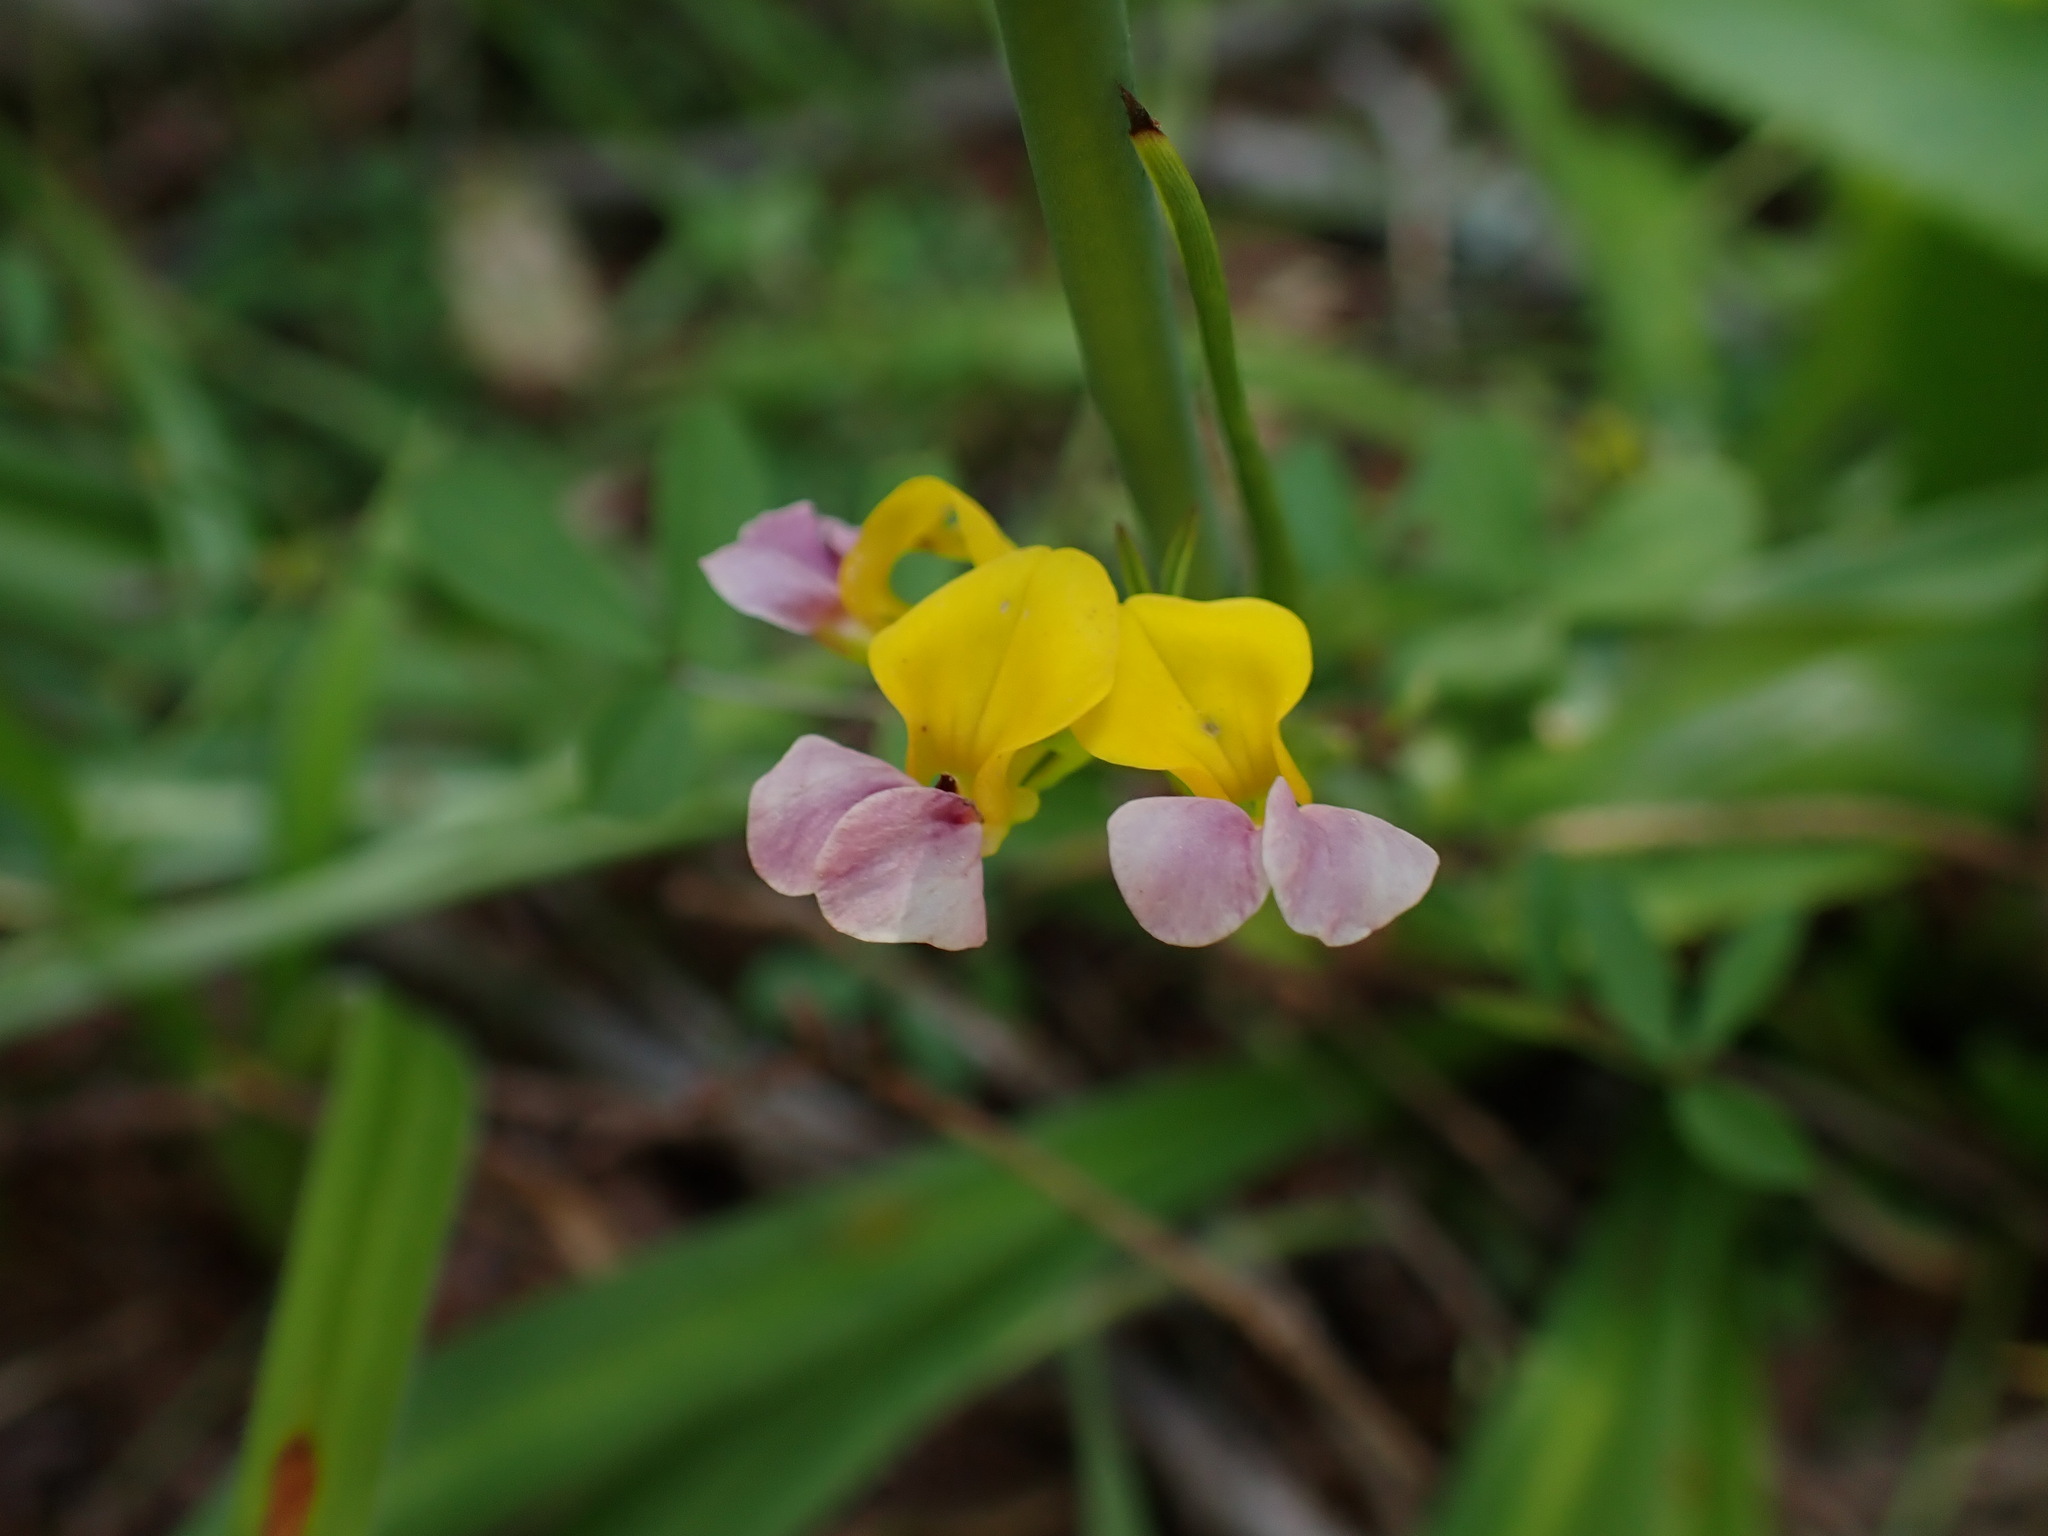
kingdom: Plantae
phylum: Tracheophyta
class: Magnoliopsida
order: Fabales
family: Fabaceae
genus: Hosackia
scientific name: Hosackia gracilis
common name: Seaside bird's-foot lotus
